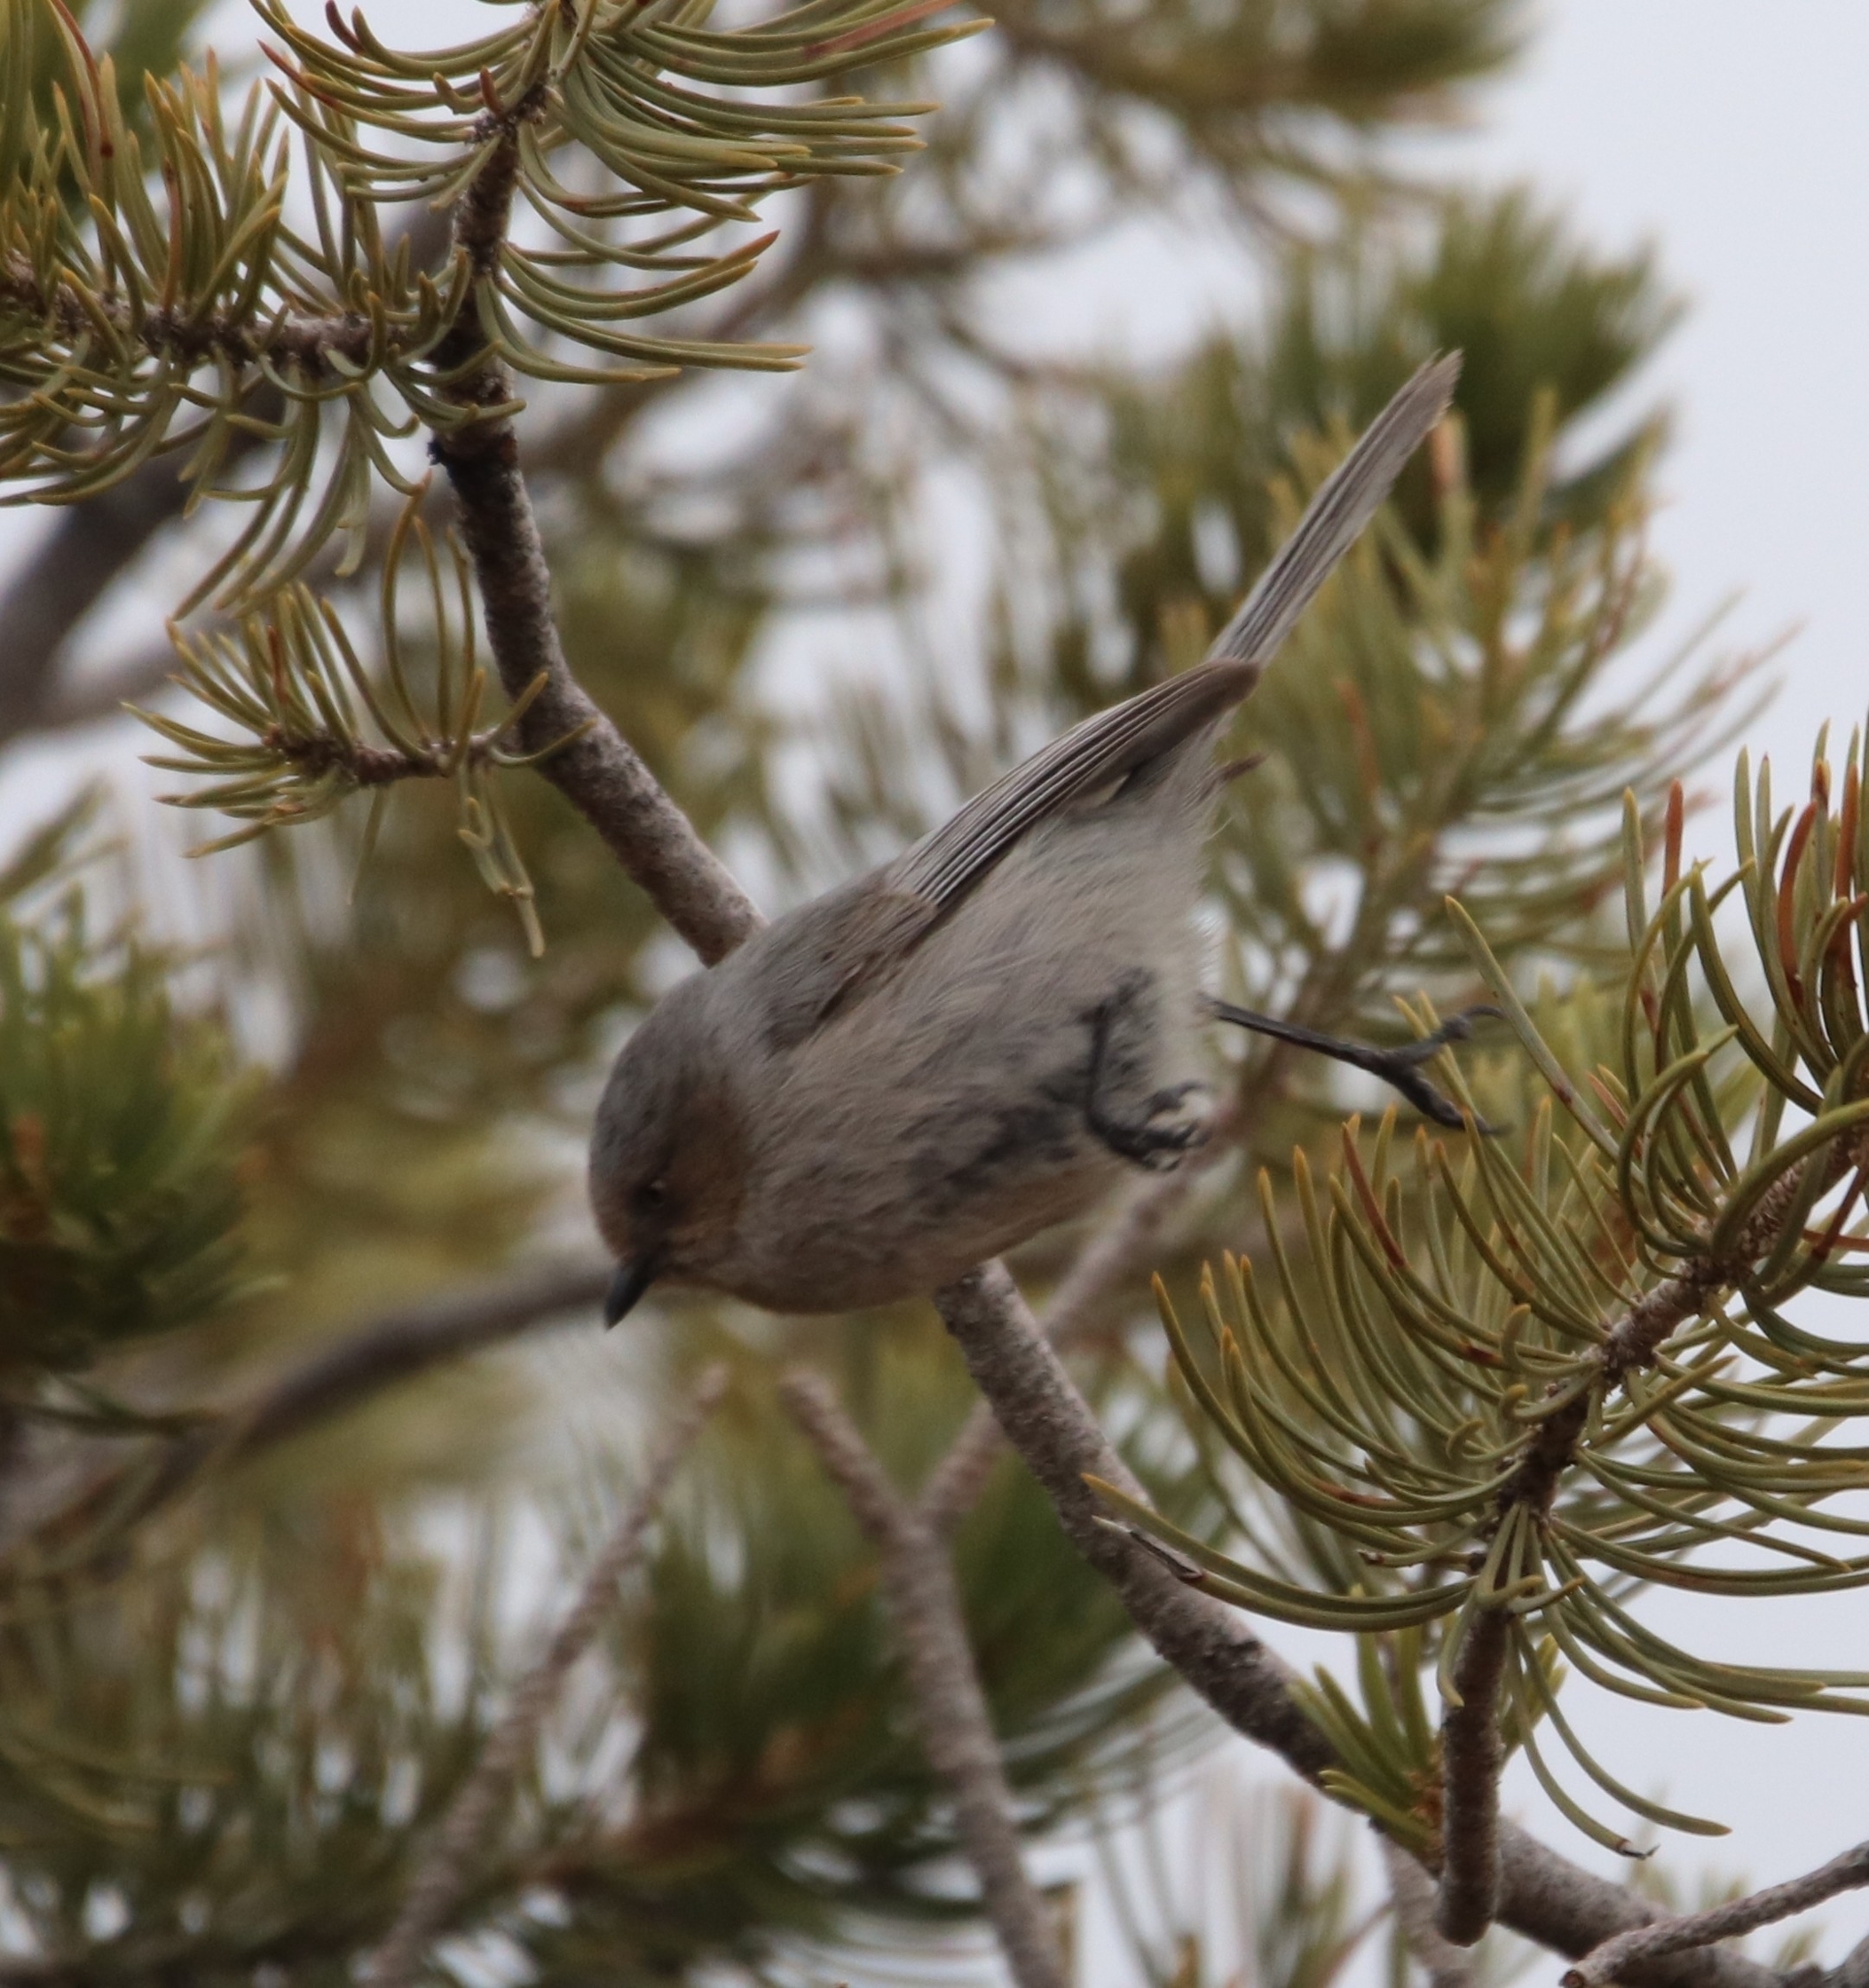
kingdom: Animalia
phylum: Chordata
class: Aves
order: Passeriformes
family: Aegithalidae
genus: Psaltriparus
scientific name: Psaltriparus minimus
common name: American bushtit
